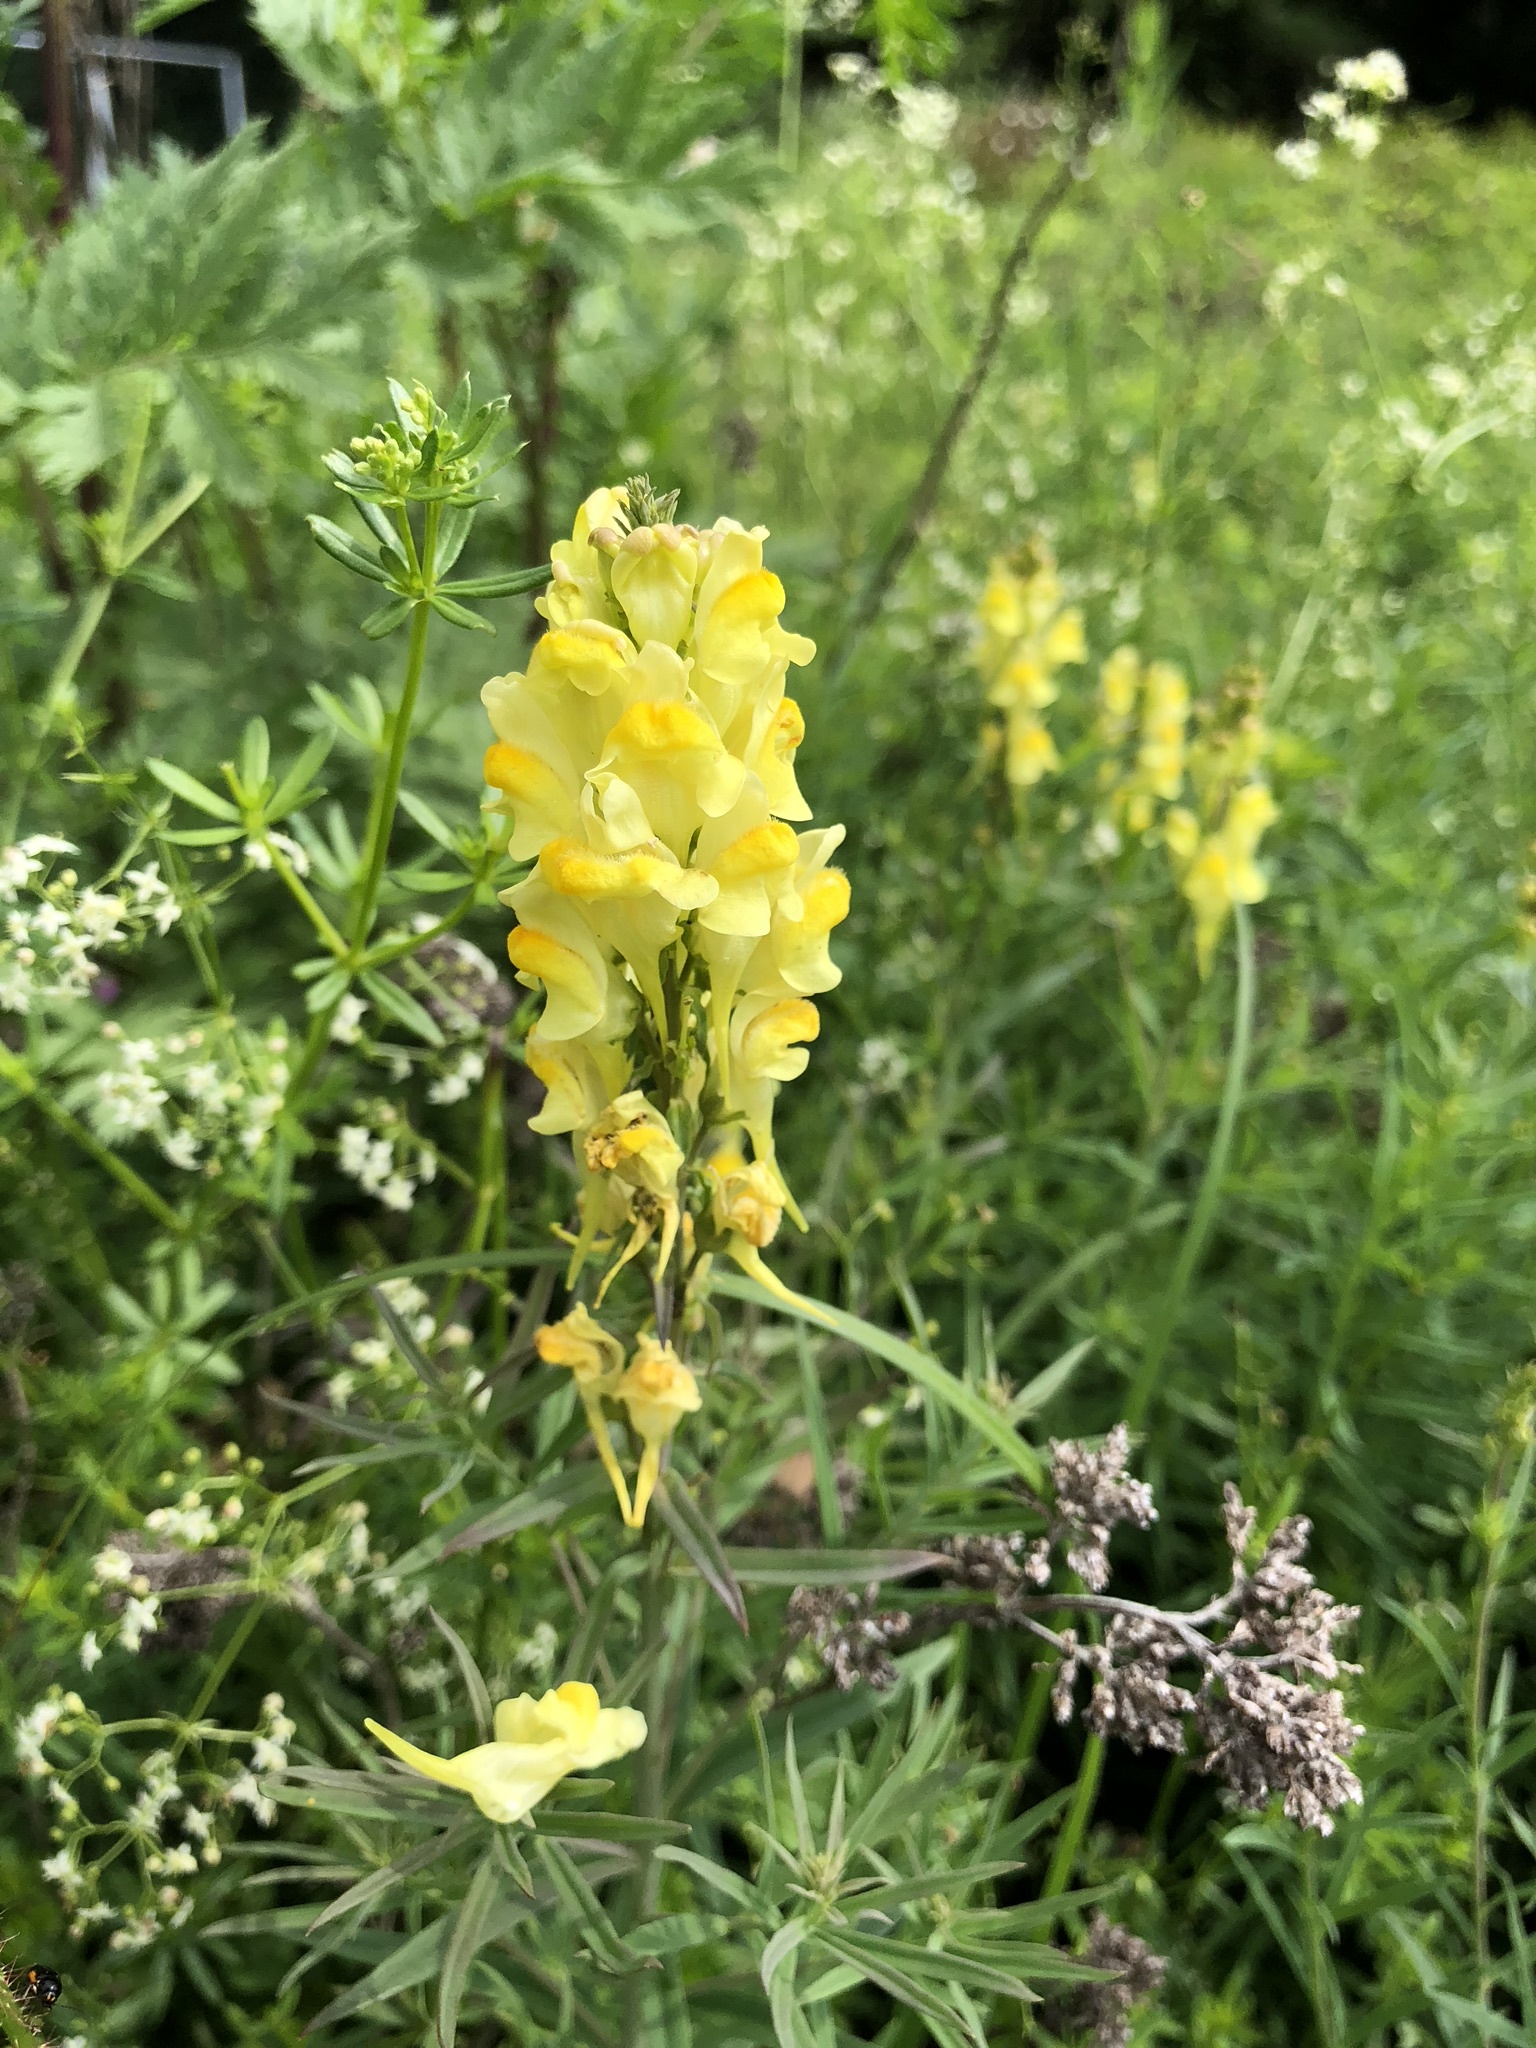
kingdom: Plantae
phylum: Tracheophyta
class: Magnoliopsida
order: Lamiales
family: Plantaginaceae
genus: Linaria
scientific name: Linaria vulgaris
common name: Butter and eggs
